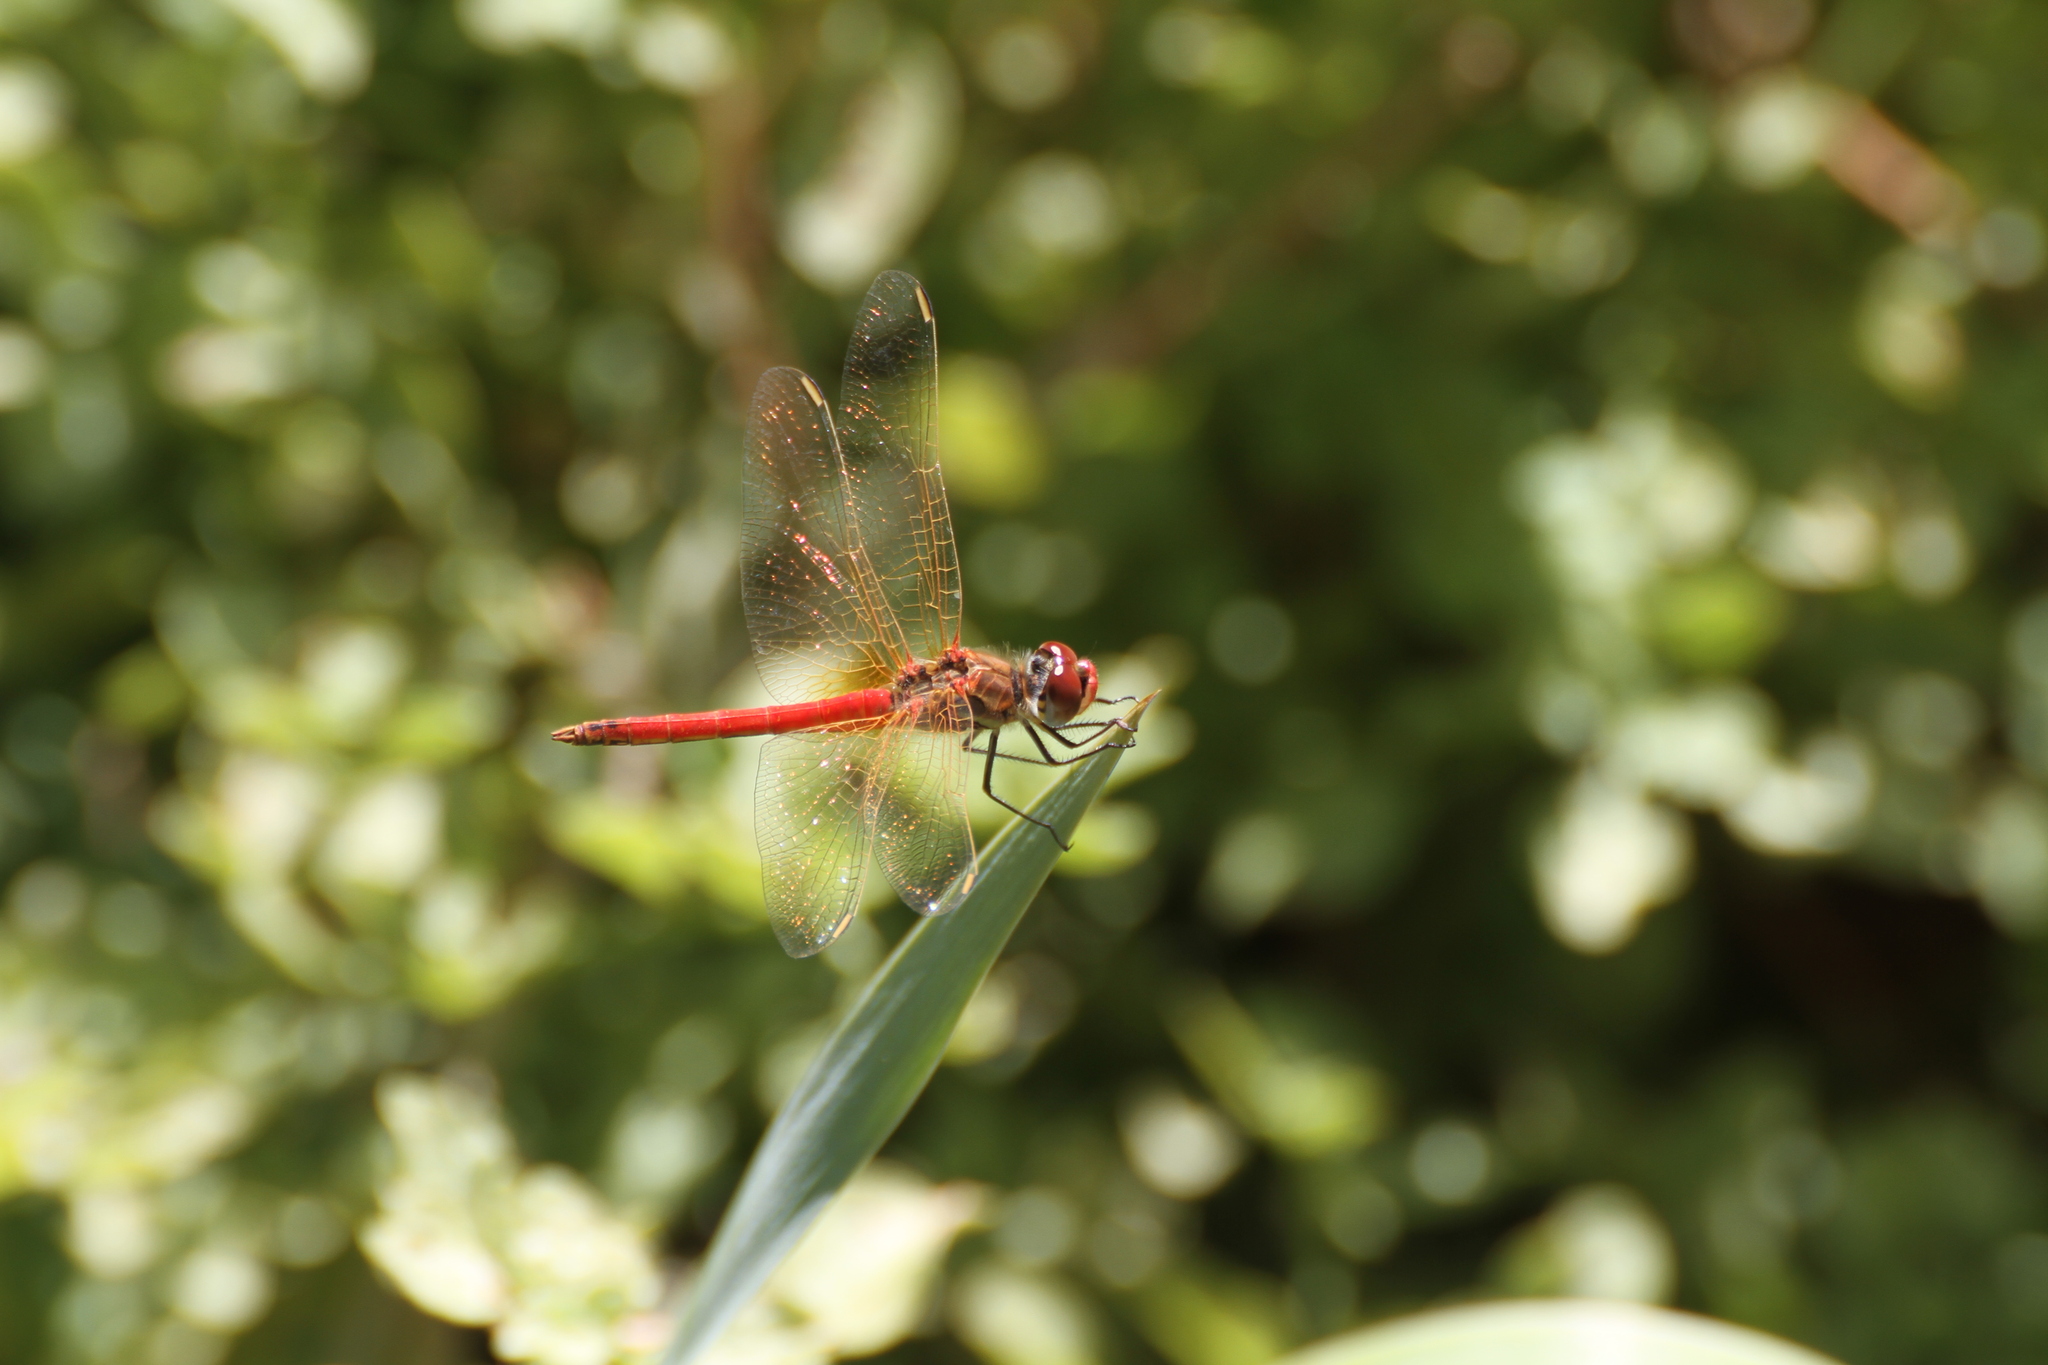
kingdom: Animalia
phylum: Arthropoda
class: Insecta
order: Odonata
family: Libellulidae
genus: Sympetrum
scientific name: Sympetrum fonscolombii
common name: Red-veined darter
